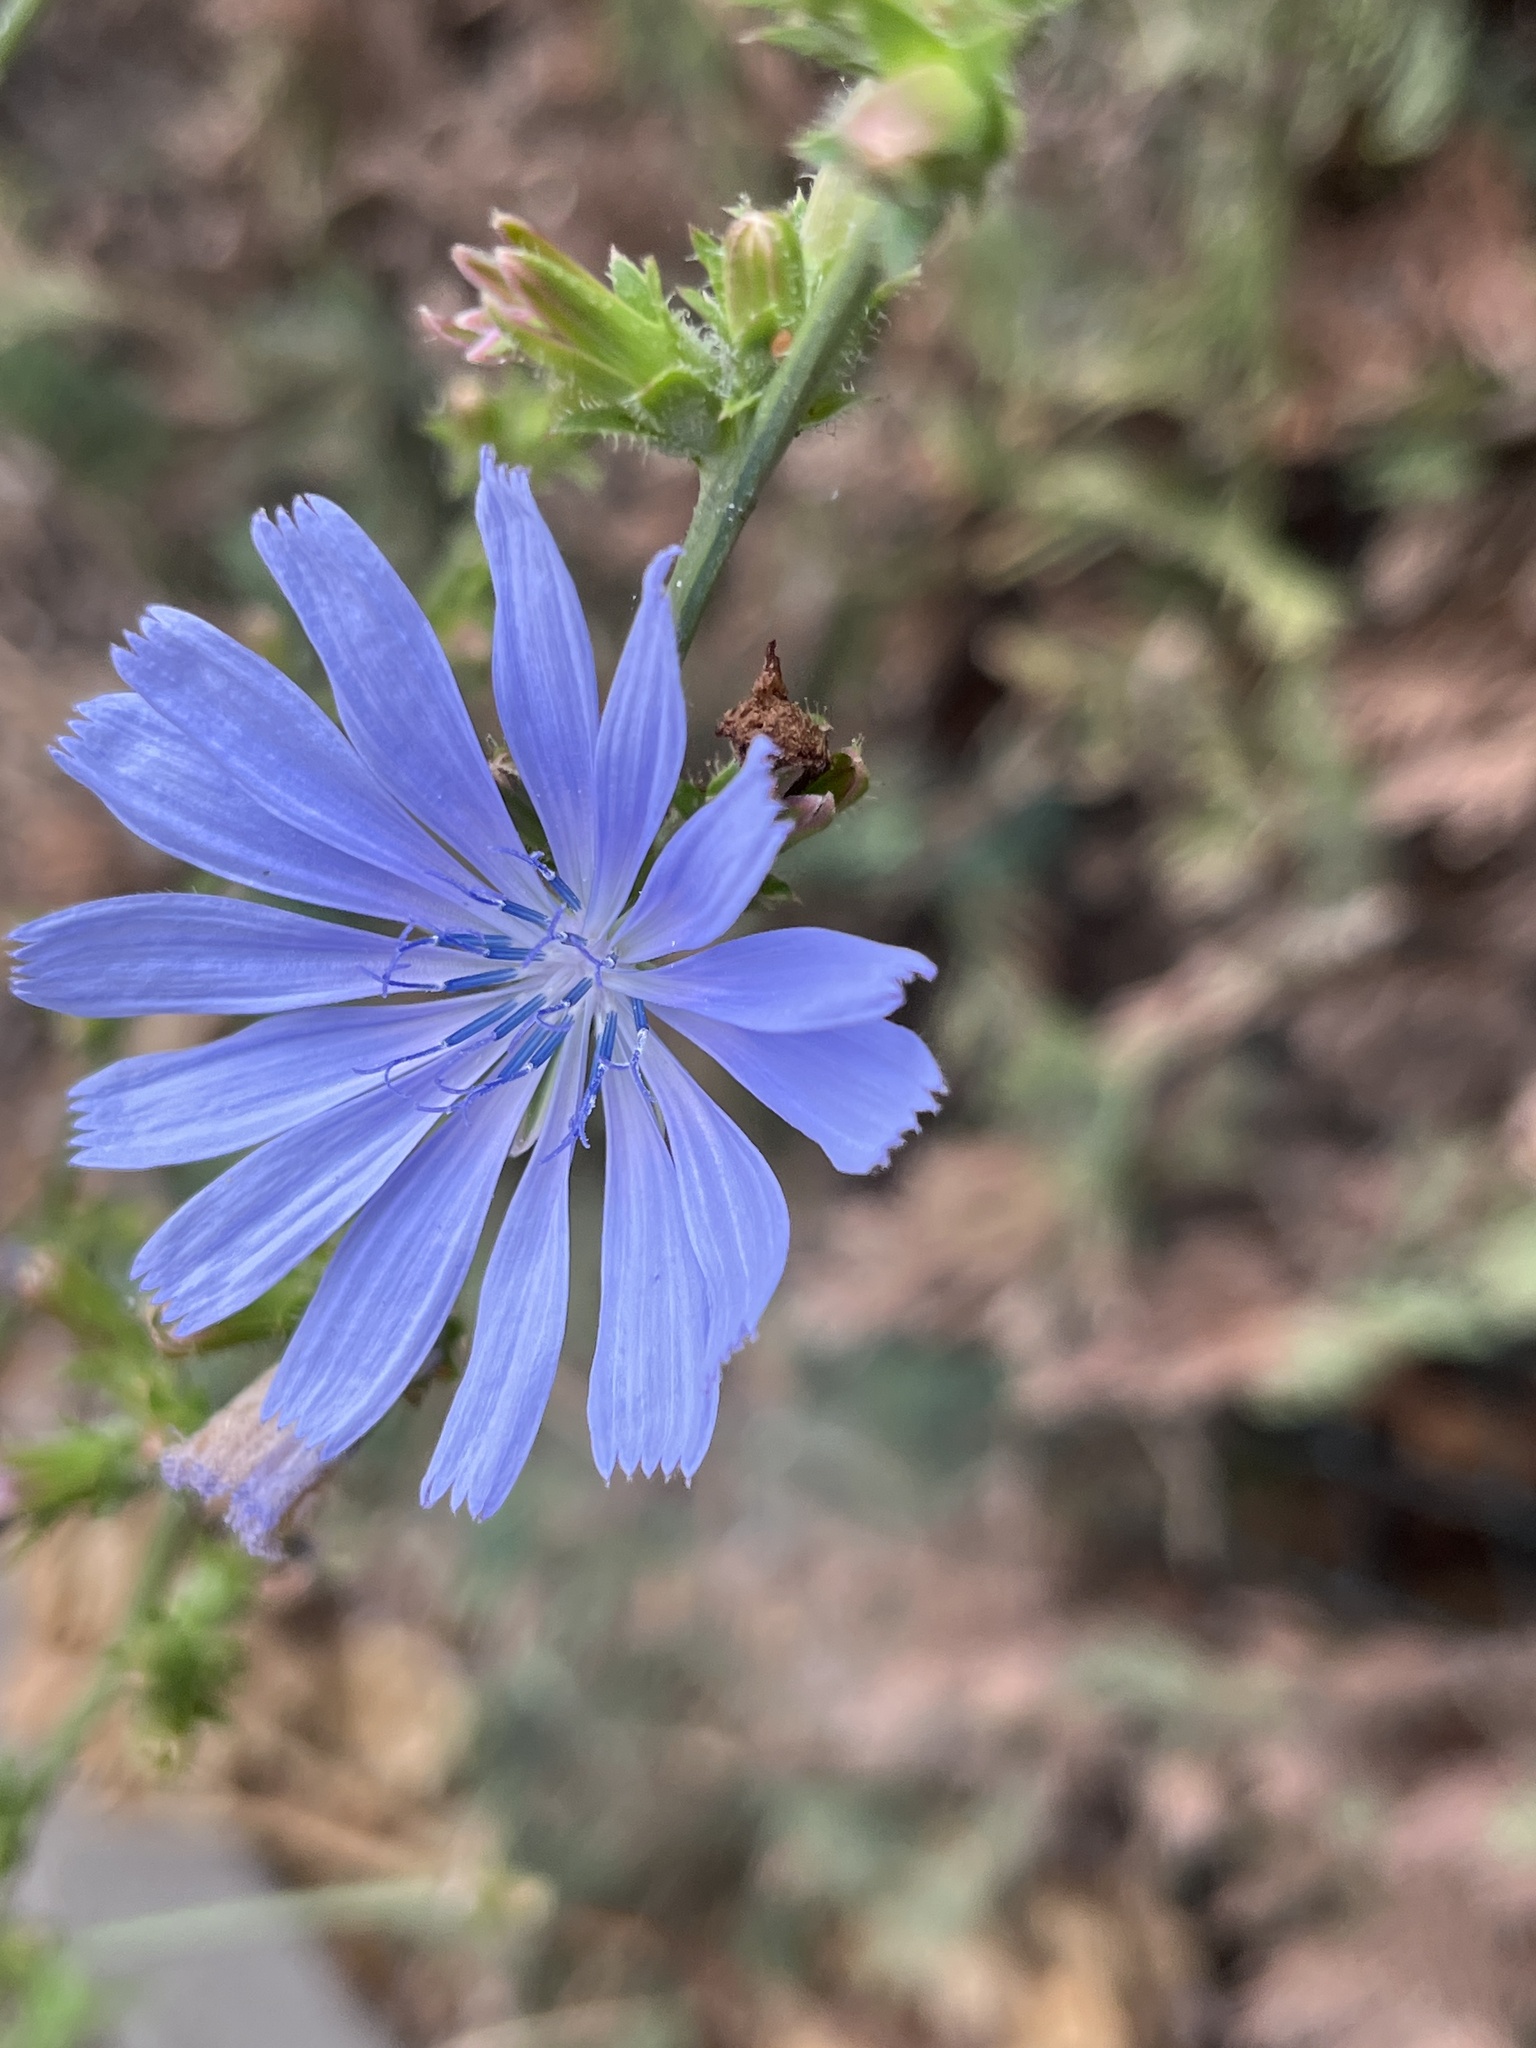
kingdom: Plantae
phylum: Tracheophyta
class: Magnoliopsida
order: Asterales
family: Asteraceae
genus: Cichorium
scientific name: Cichorium intybus
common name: Chicory
